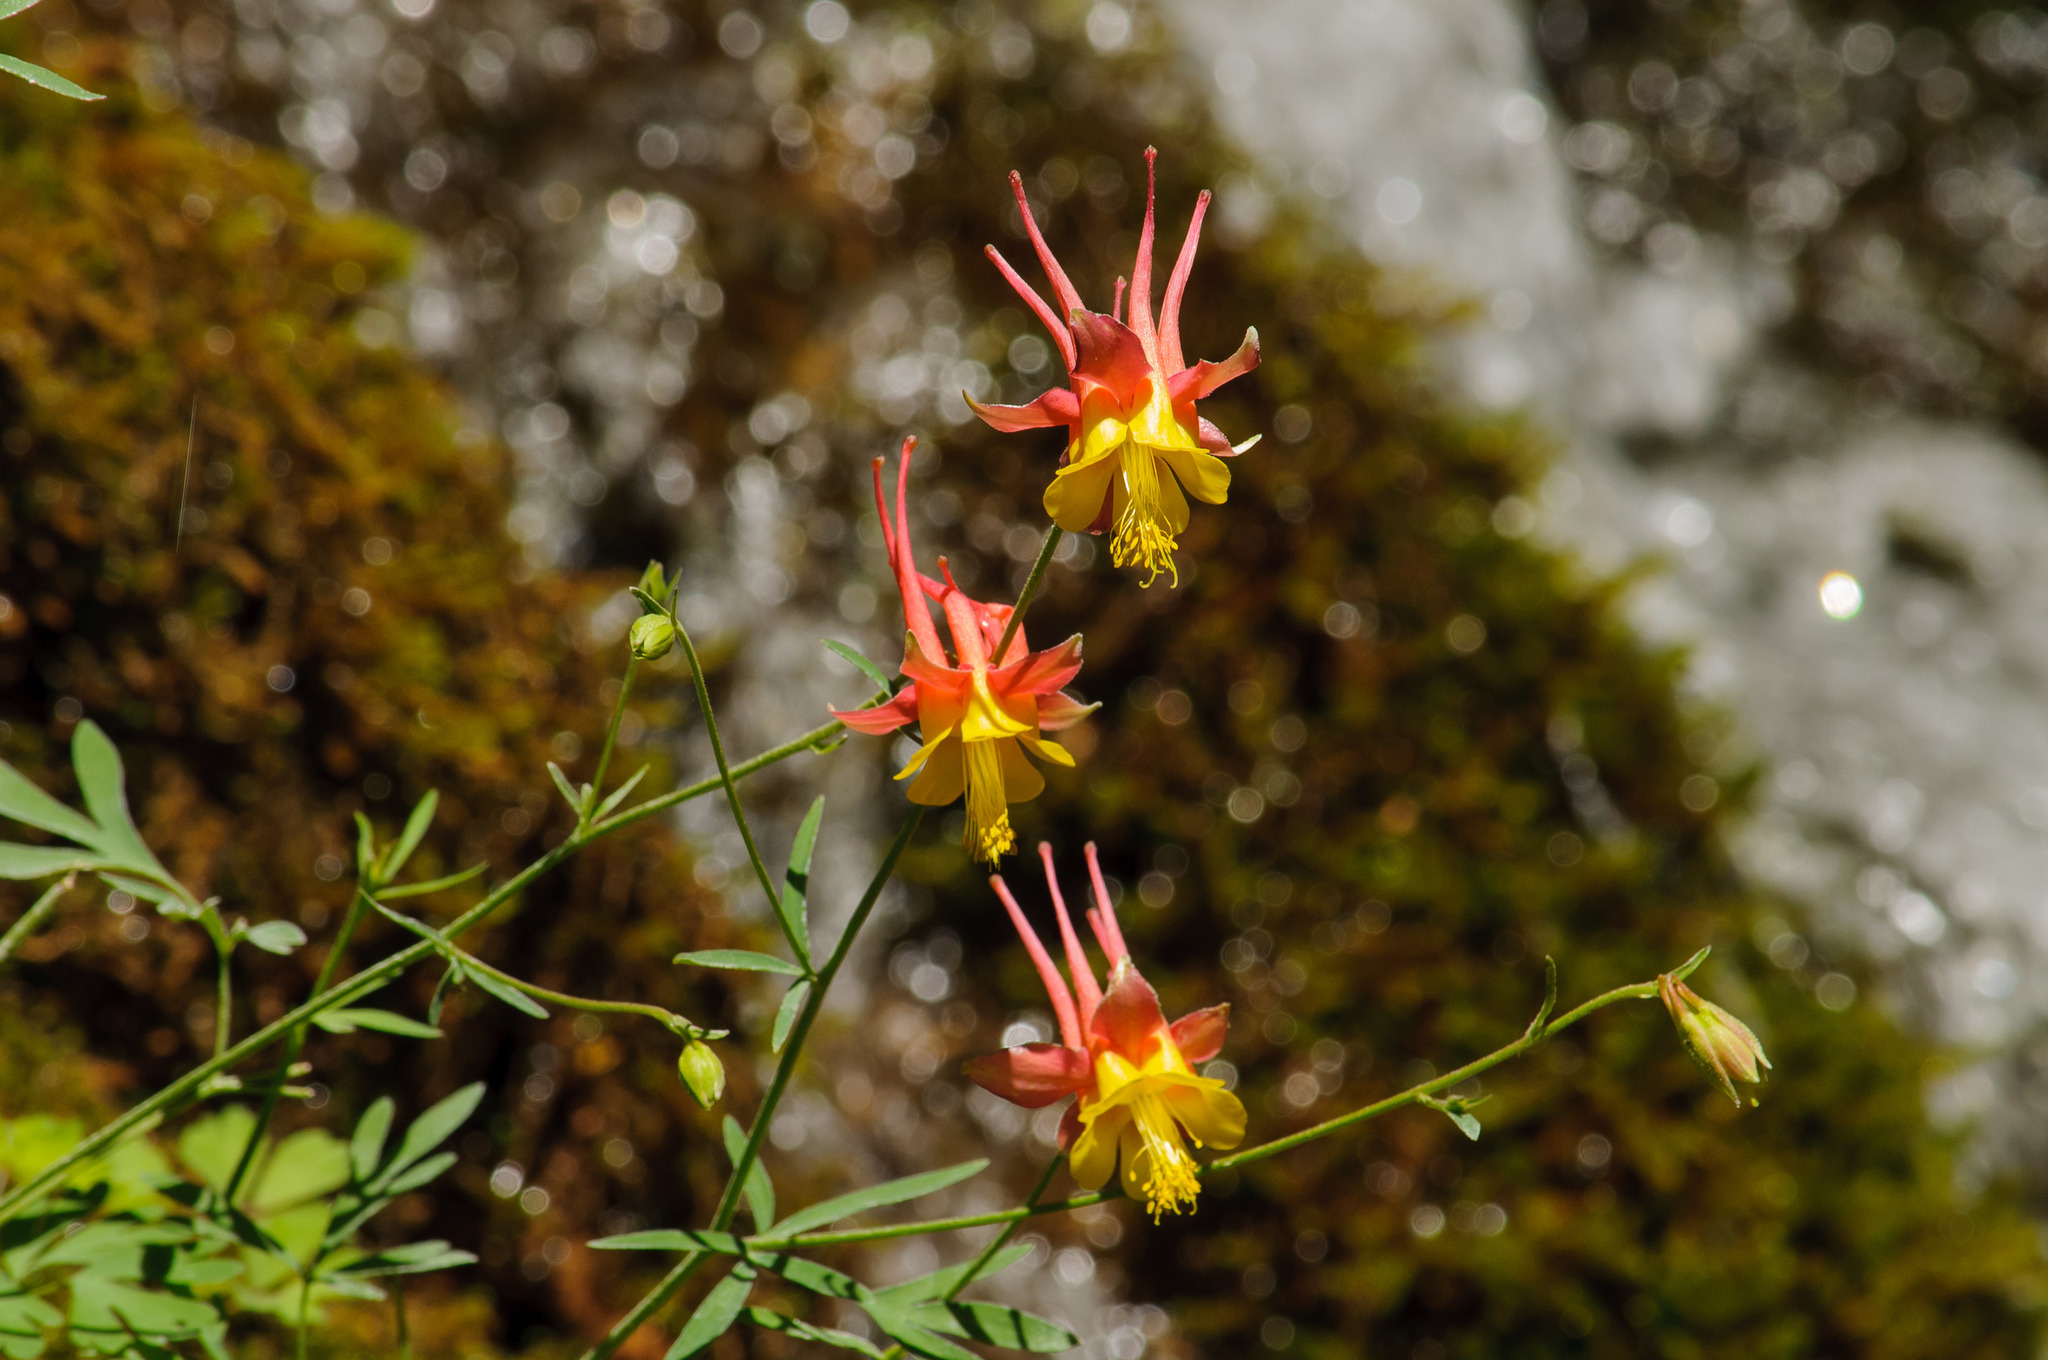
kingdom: Plantae
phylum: Tracheophyta
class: Magnoliopsida
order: Ranunculales
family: Ranunculaceae
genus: Aquilegia
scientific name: Aquilegia desertorum
